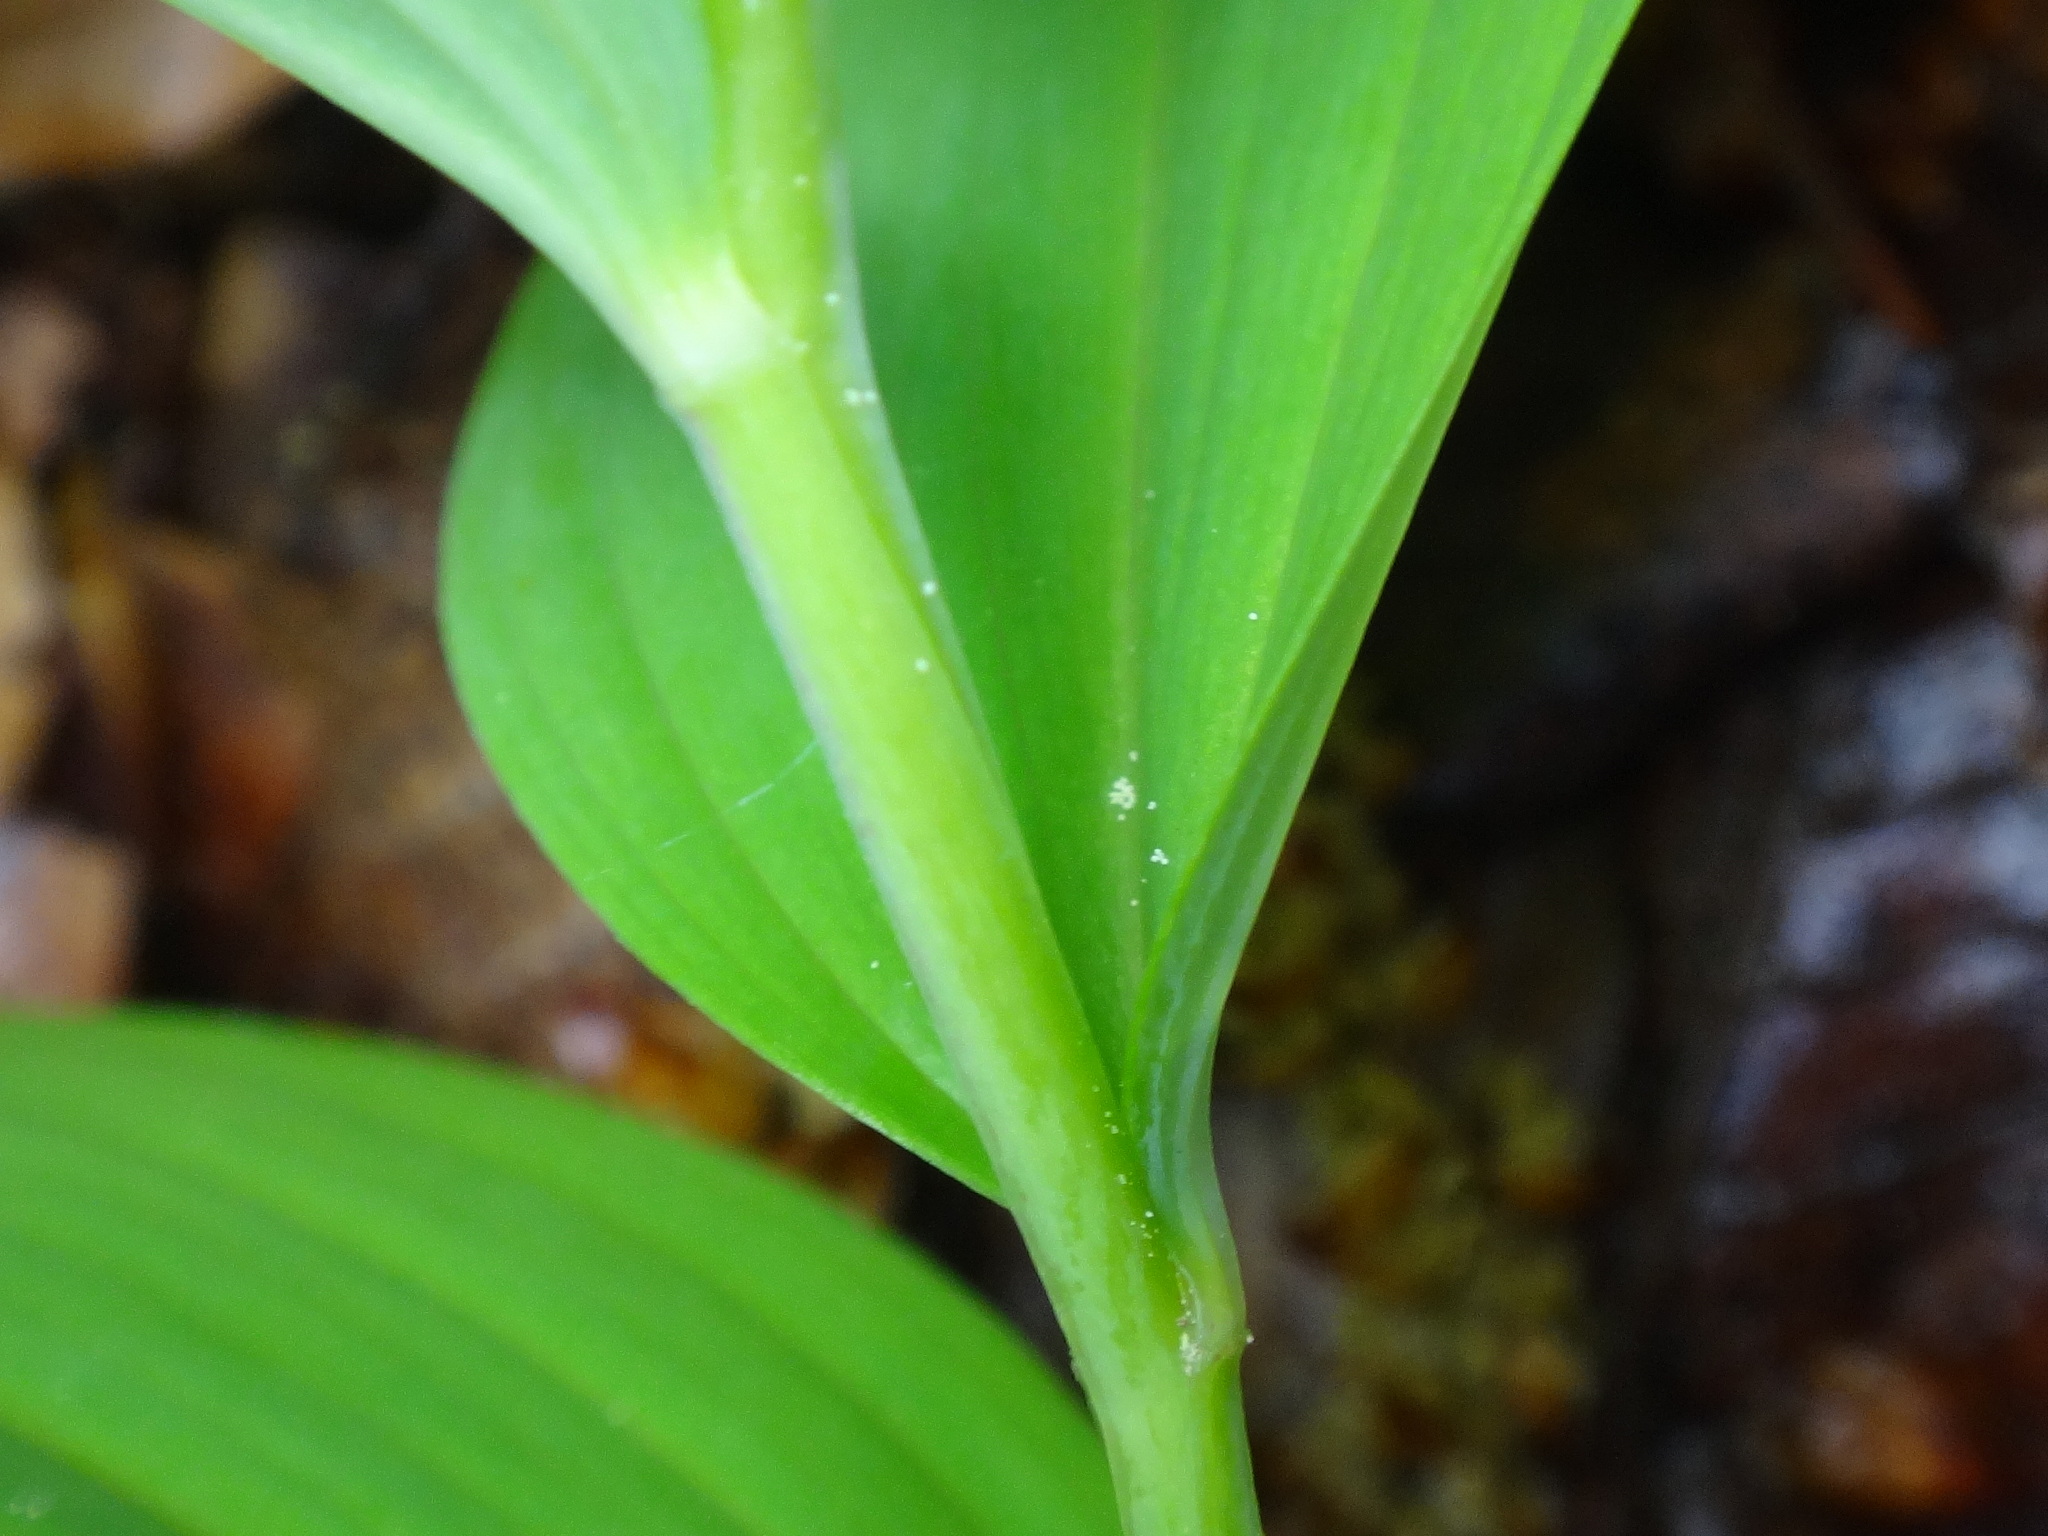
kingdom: Plantae
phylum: Tracheophyta
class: Liliopsida
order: Asparagales
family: Asparagaceae
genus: Polygonatum
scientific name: Polygonatum odoratum
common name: Angular solomon's-seal
